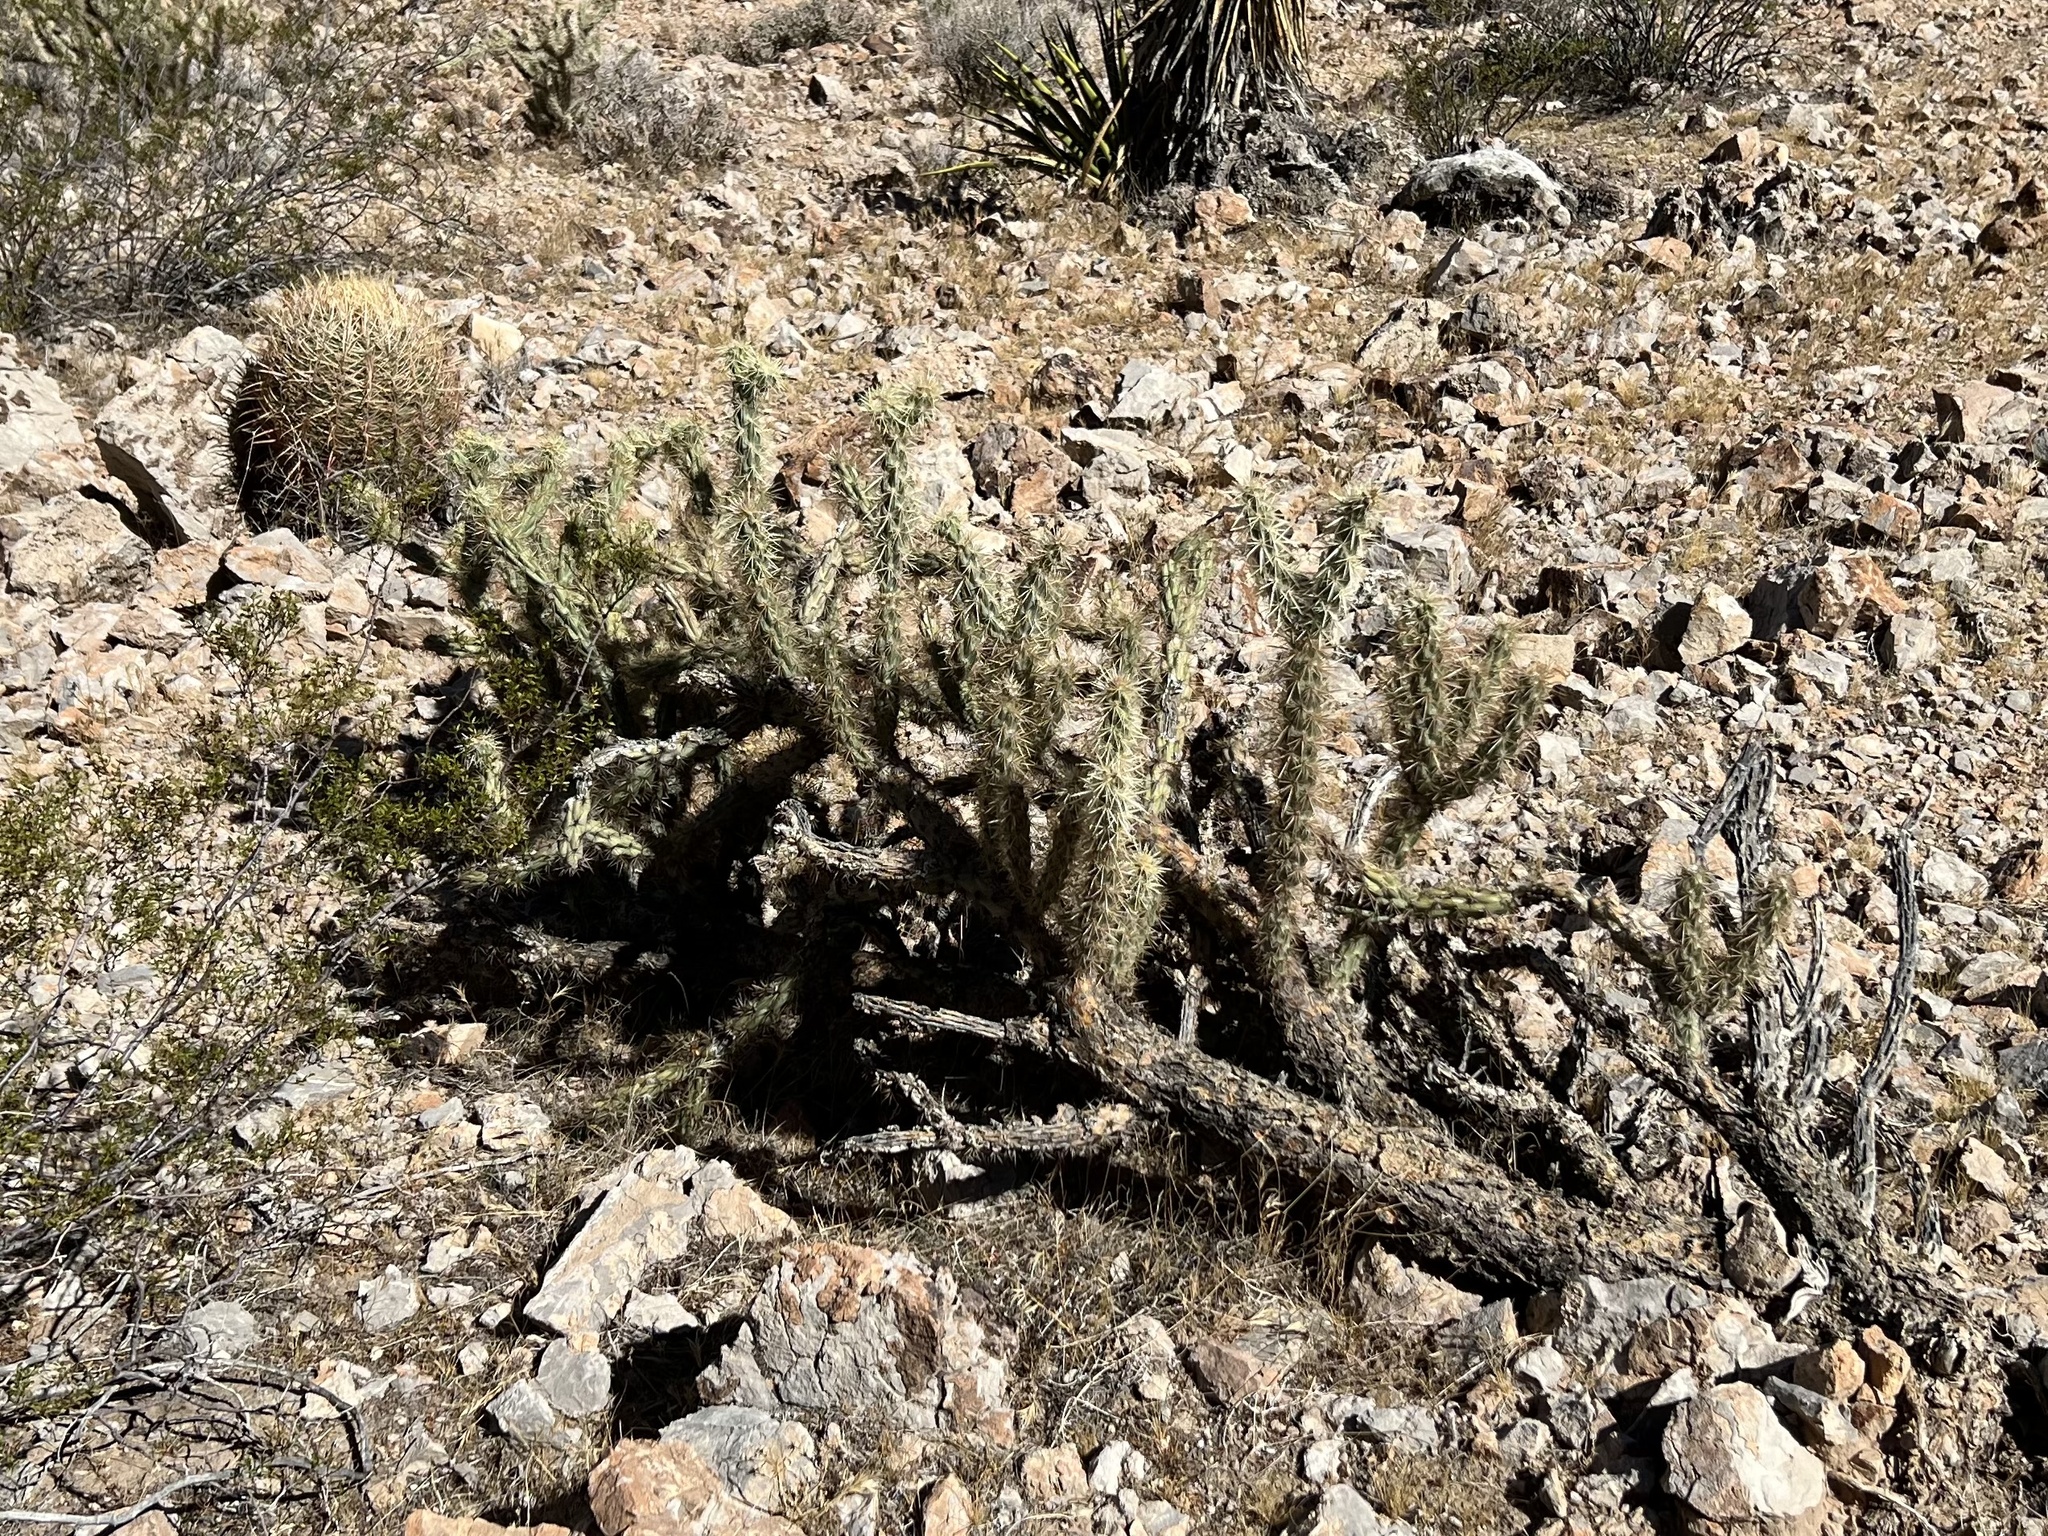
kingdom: Plantae
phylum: Tracheophyta
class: Magnoliopsida
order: Caryophyllales
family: Cactaceae
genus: Cylindropuntia
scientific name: Cylindropuntia acanthocarpa
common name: Buckhorn cholla
